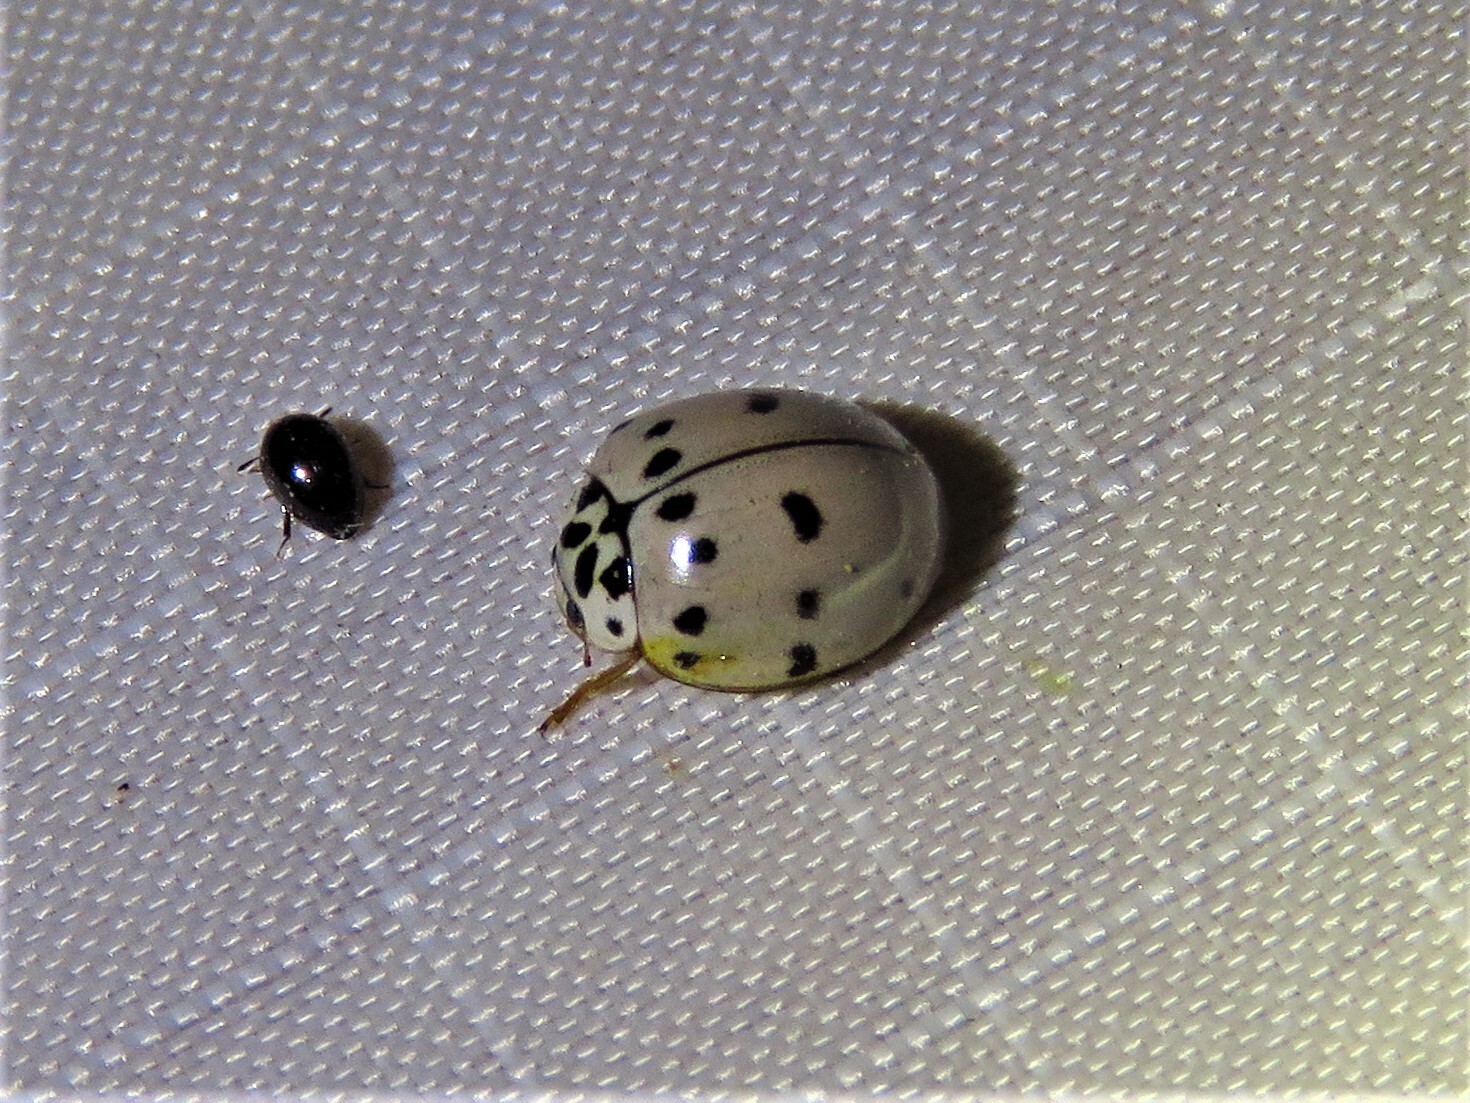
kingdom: Animalia
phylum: Arthropoda
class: Insecta
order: Coleoptera
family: Coccinellidae
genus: Olla
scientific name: Olla v-nigrum
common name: Ashy gray lady beetle
